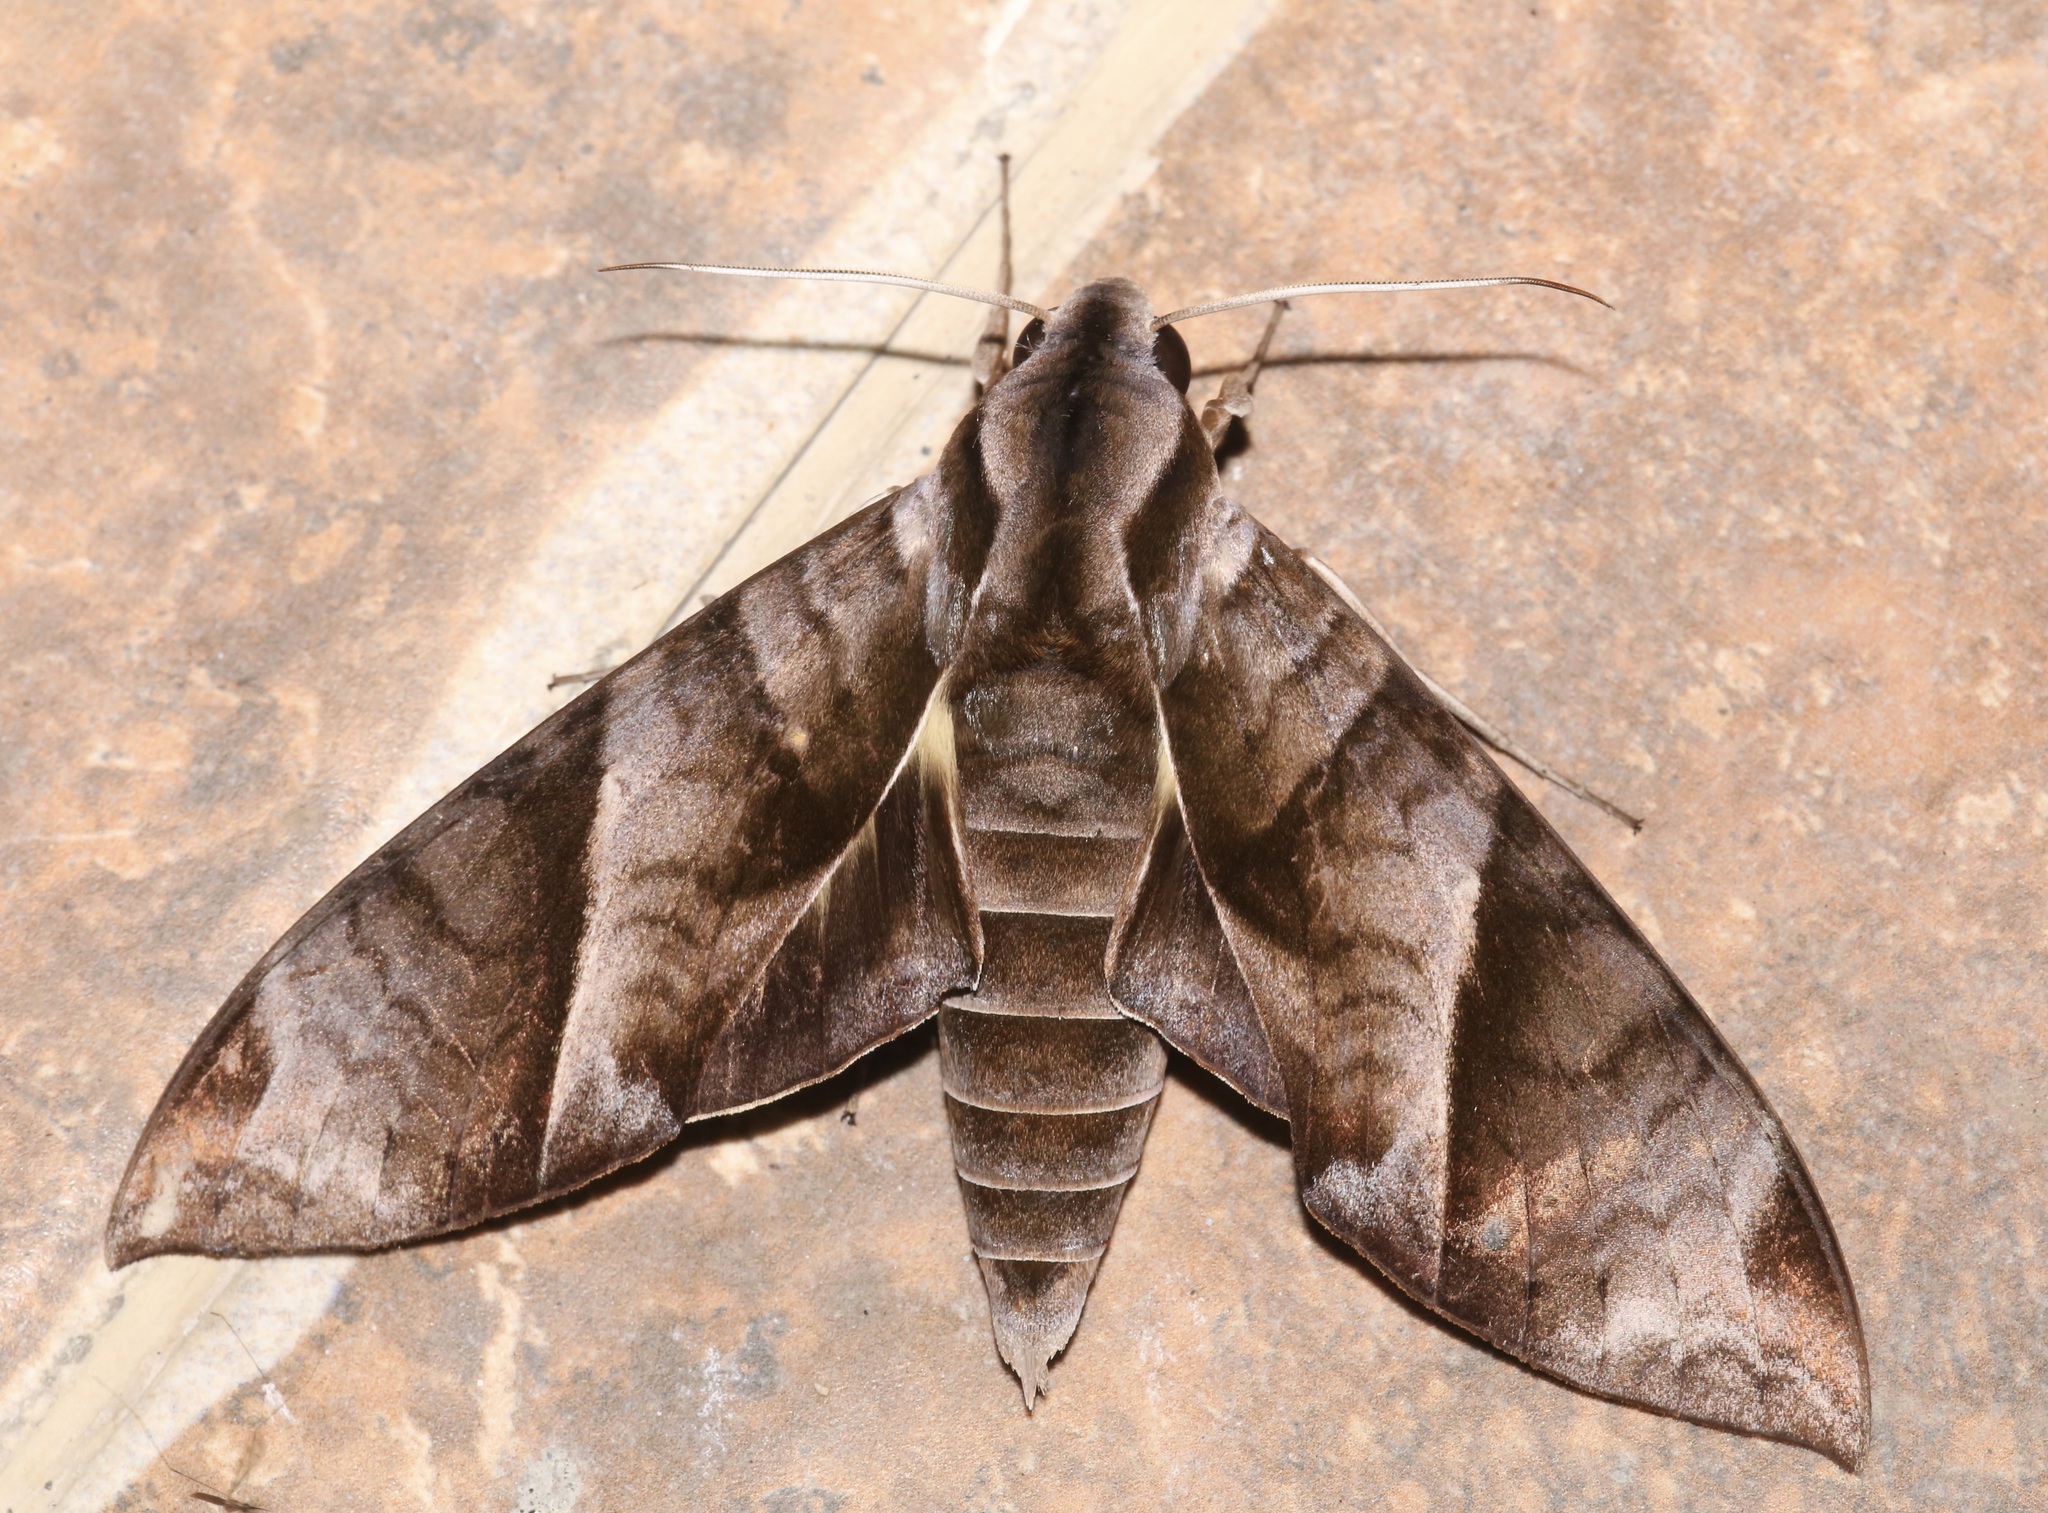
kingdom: Animalia
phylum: Arthropoda
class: Insecta
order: Lepidoptera
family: Sphingidae
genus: Eumorpha
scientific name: Eumorpha anchemolus
